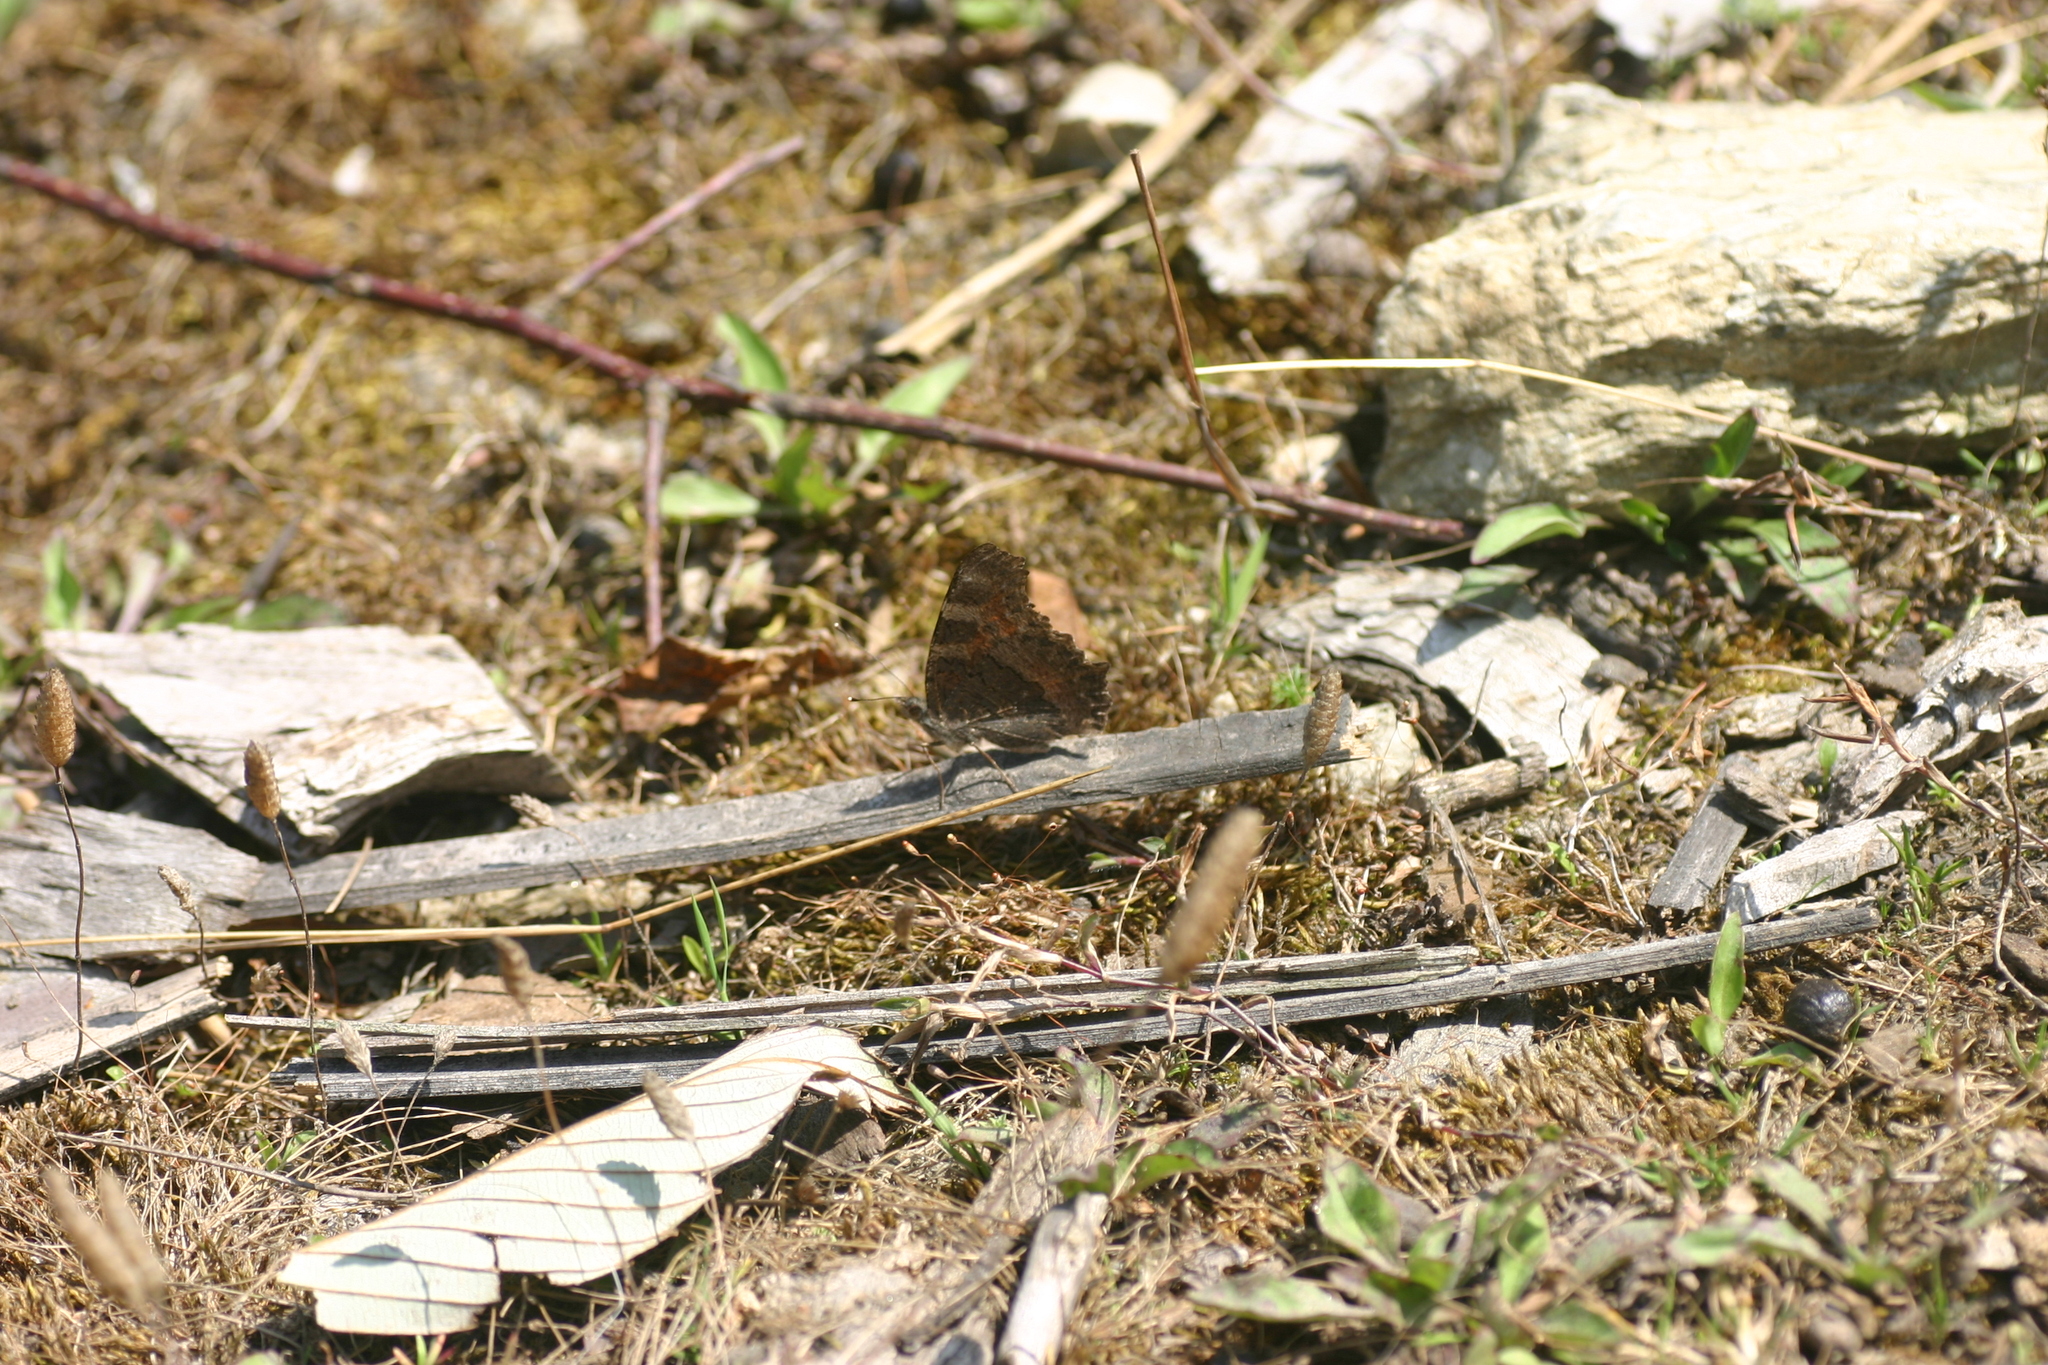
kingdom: Animalia
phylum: Arthropoda
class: Insecta
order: Lepidoptera
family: Nymphalidae
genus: Aglais
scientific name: Aglais caschmirensis
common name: Indian tortoiseshell
